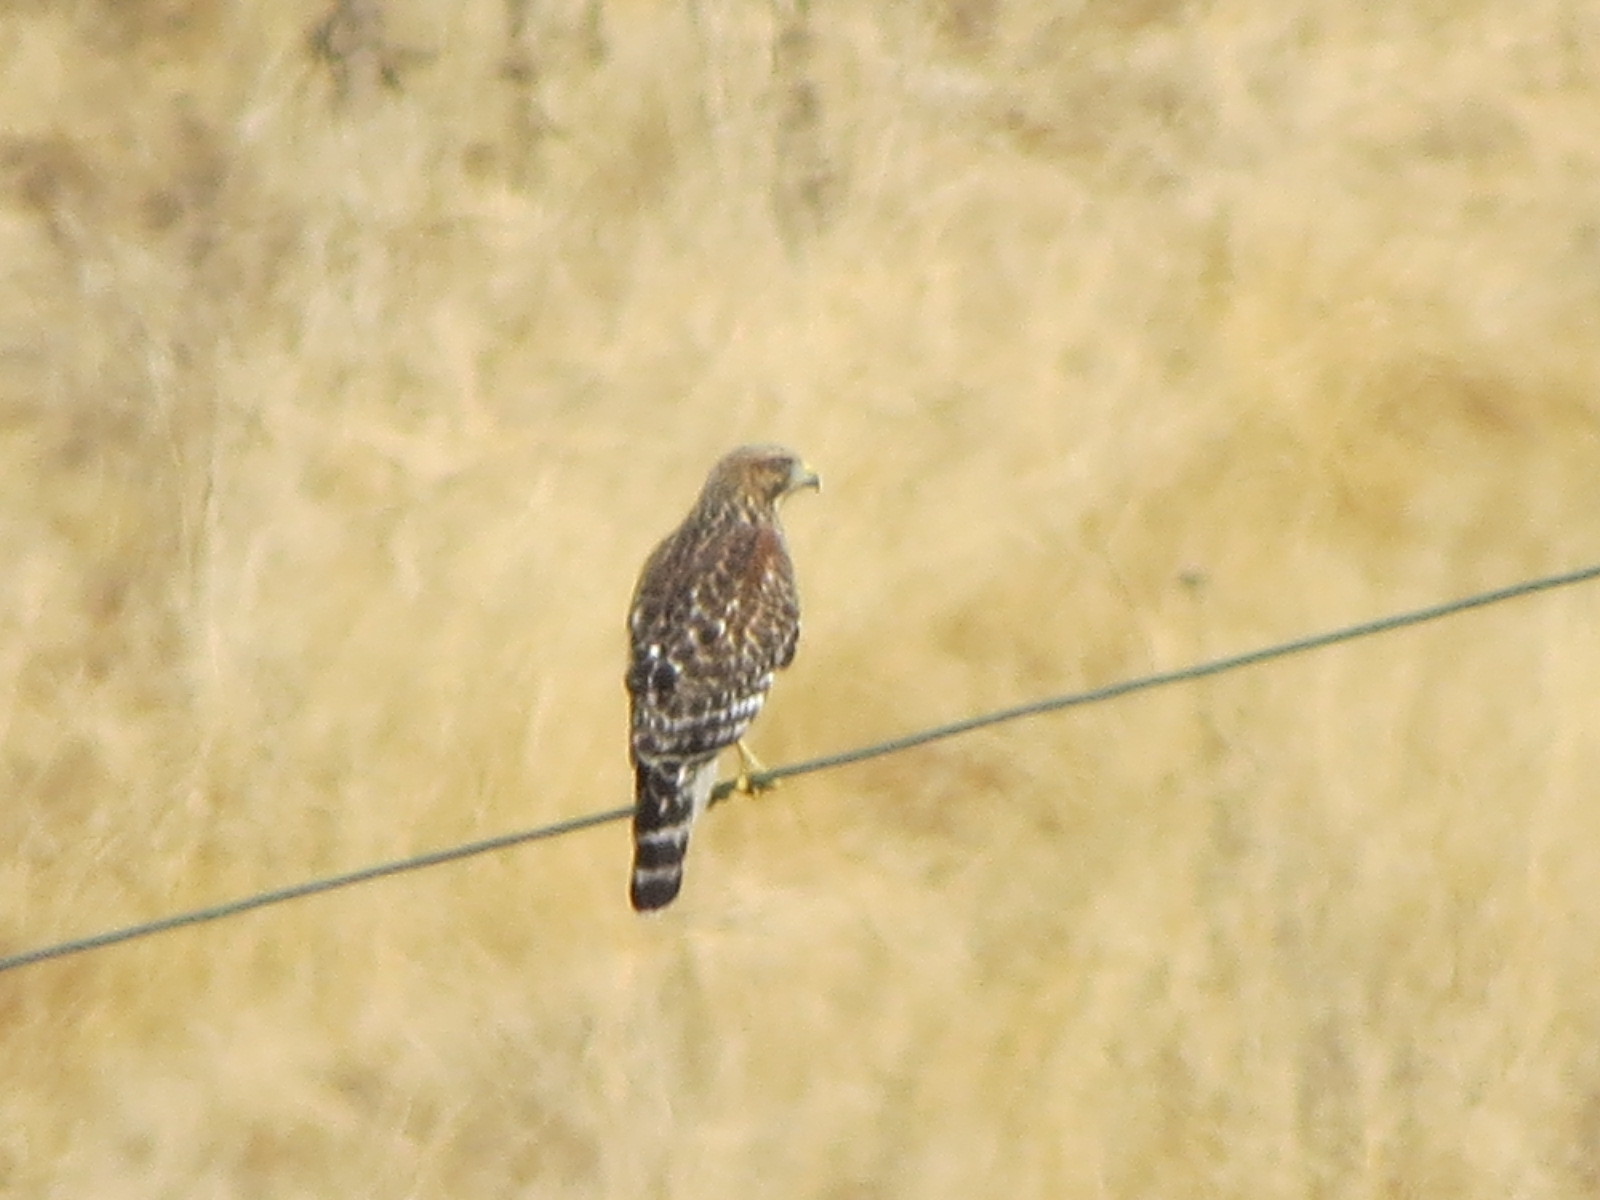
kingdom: Animalia
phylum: Chordata
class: Aves
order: Accipitriformes
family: Accipitridae
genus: Buteo
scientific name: Buteo lineatus
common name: Red-shouldered hawk
